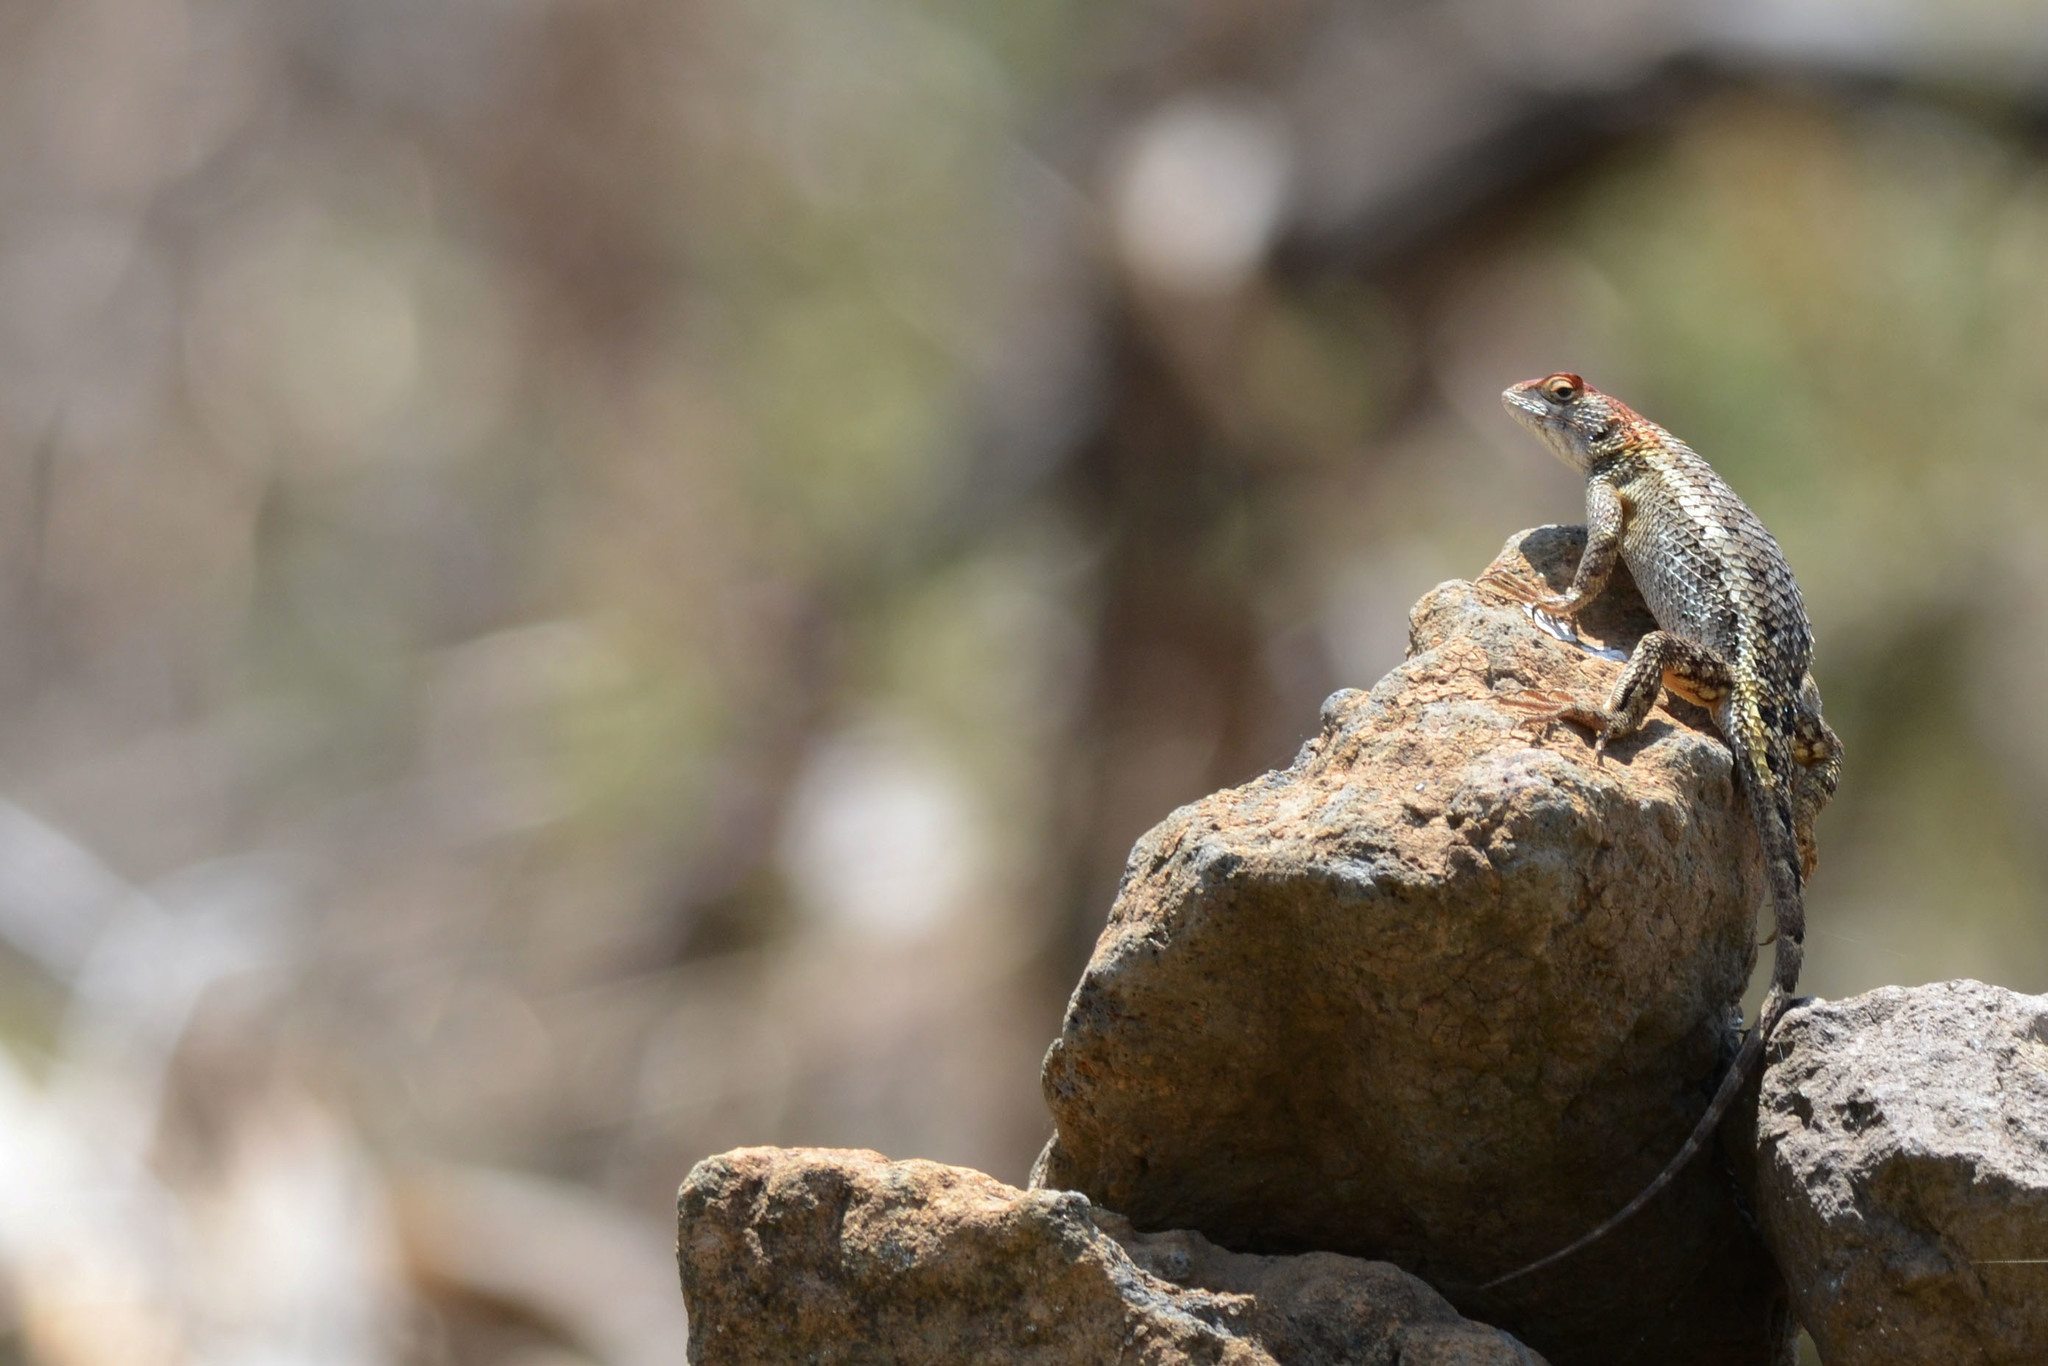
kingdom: Animalia
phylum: Chordata
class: Squamata
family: Phrynosomatidae
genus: Sceloporus
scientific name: Sceloporus horridus
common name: Few-pored rough lizard
